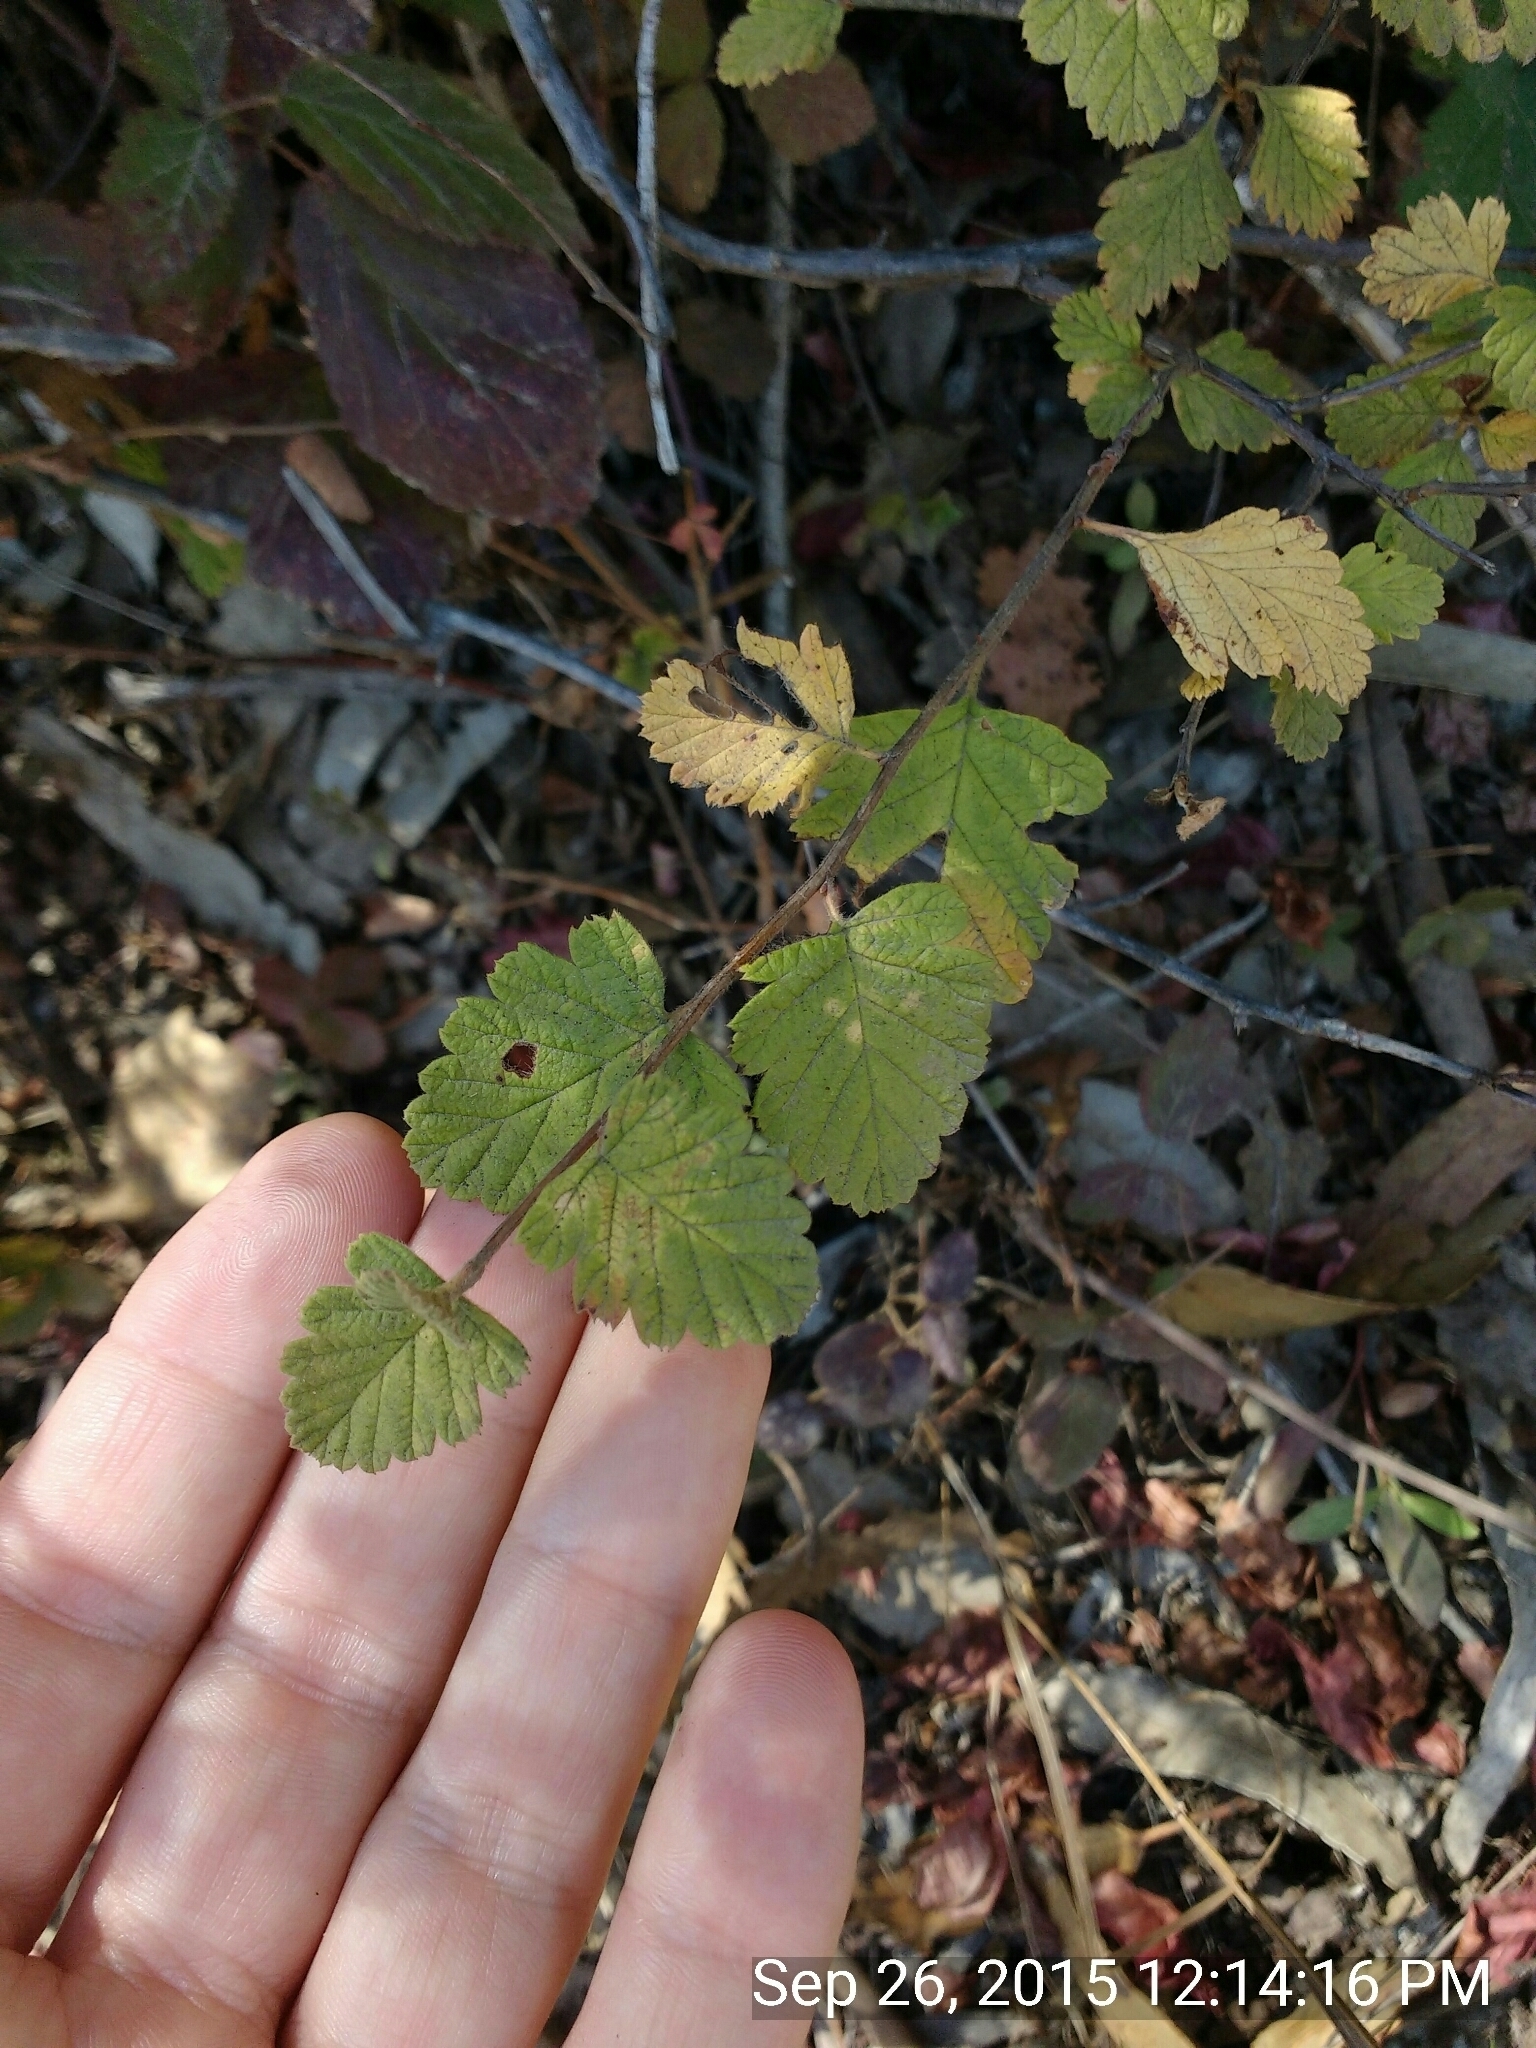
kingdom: Plantae
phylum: Tracheophyta
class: Magnoliopsida
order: Garryales
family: Garryaceae
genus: Garrya
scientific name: Garrya elliptica
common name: Silk-tassel
